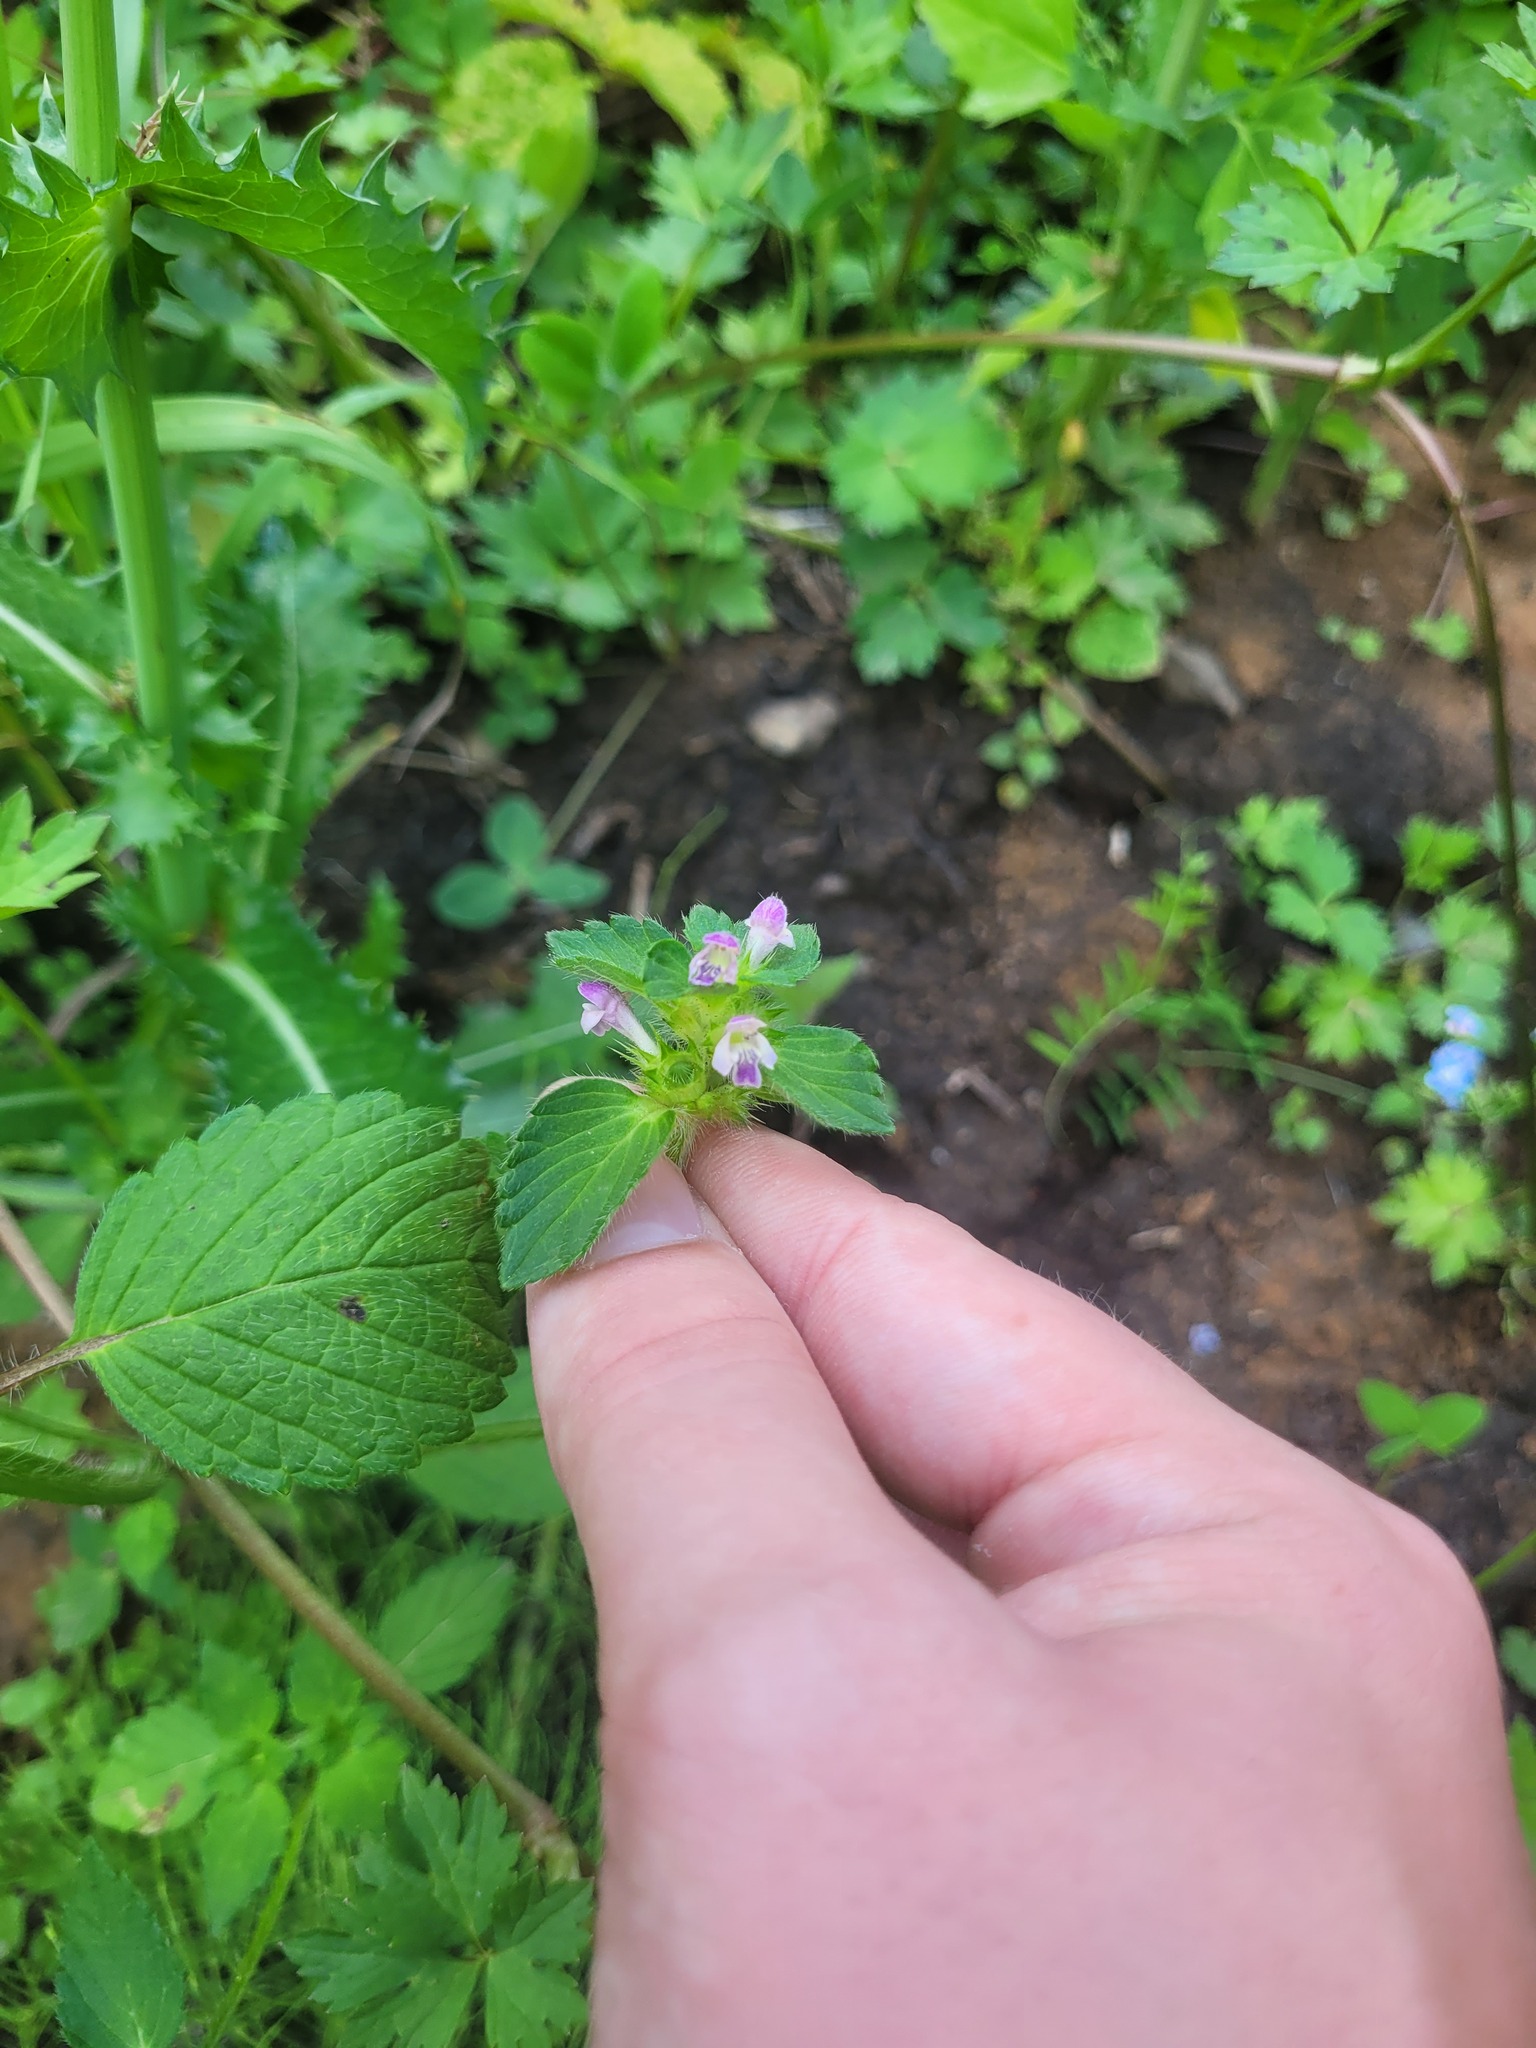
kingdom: Plantae
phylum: Tracheophyta
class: Magnoliopsida
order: Lamiales
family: Lamiaceae
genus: Galeopsis
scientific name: Galeopsis bifida
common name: Bifid hemp-nettle
